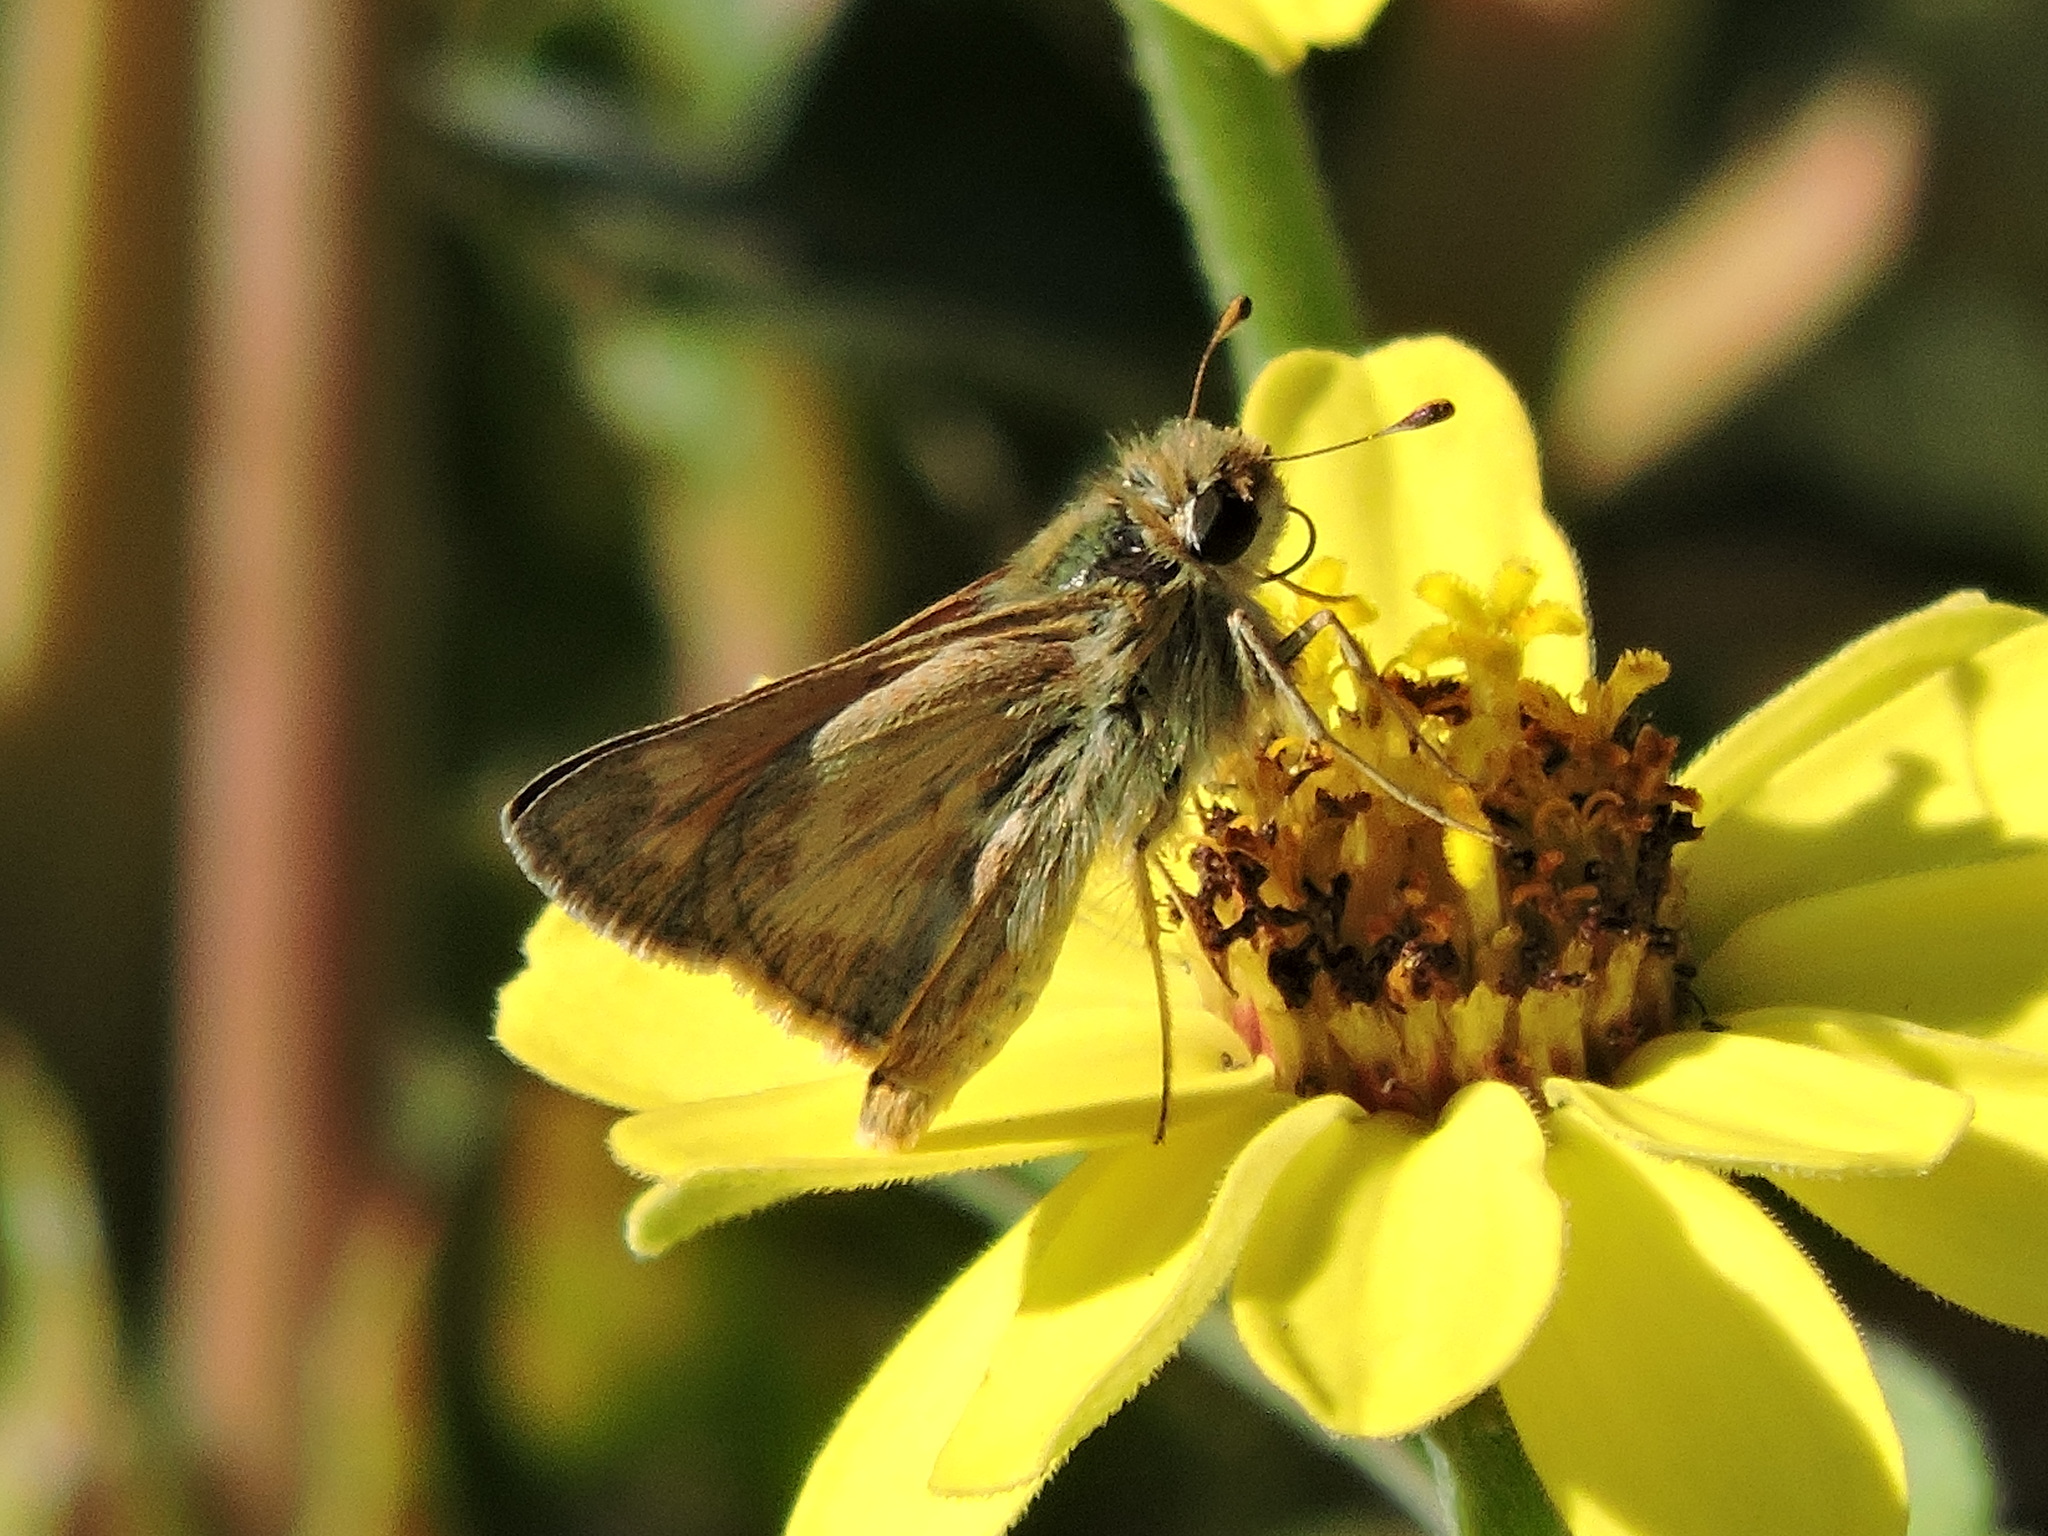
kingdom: Animalia
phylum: Arthropoda
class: Insecta
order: Lepidoptera
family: Hesperiidae
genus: Ochlodes
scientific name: Ochlodes sylvanoides
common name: Woodland skipper
